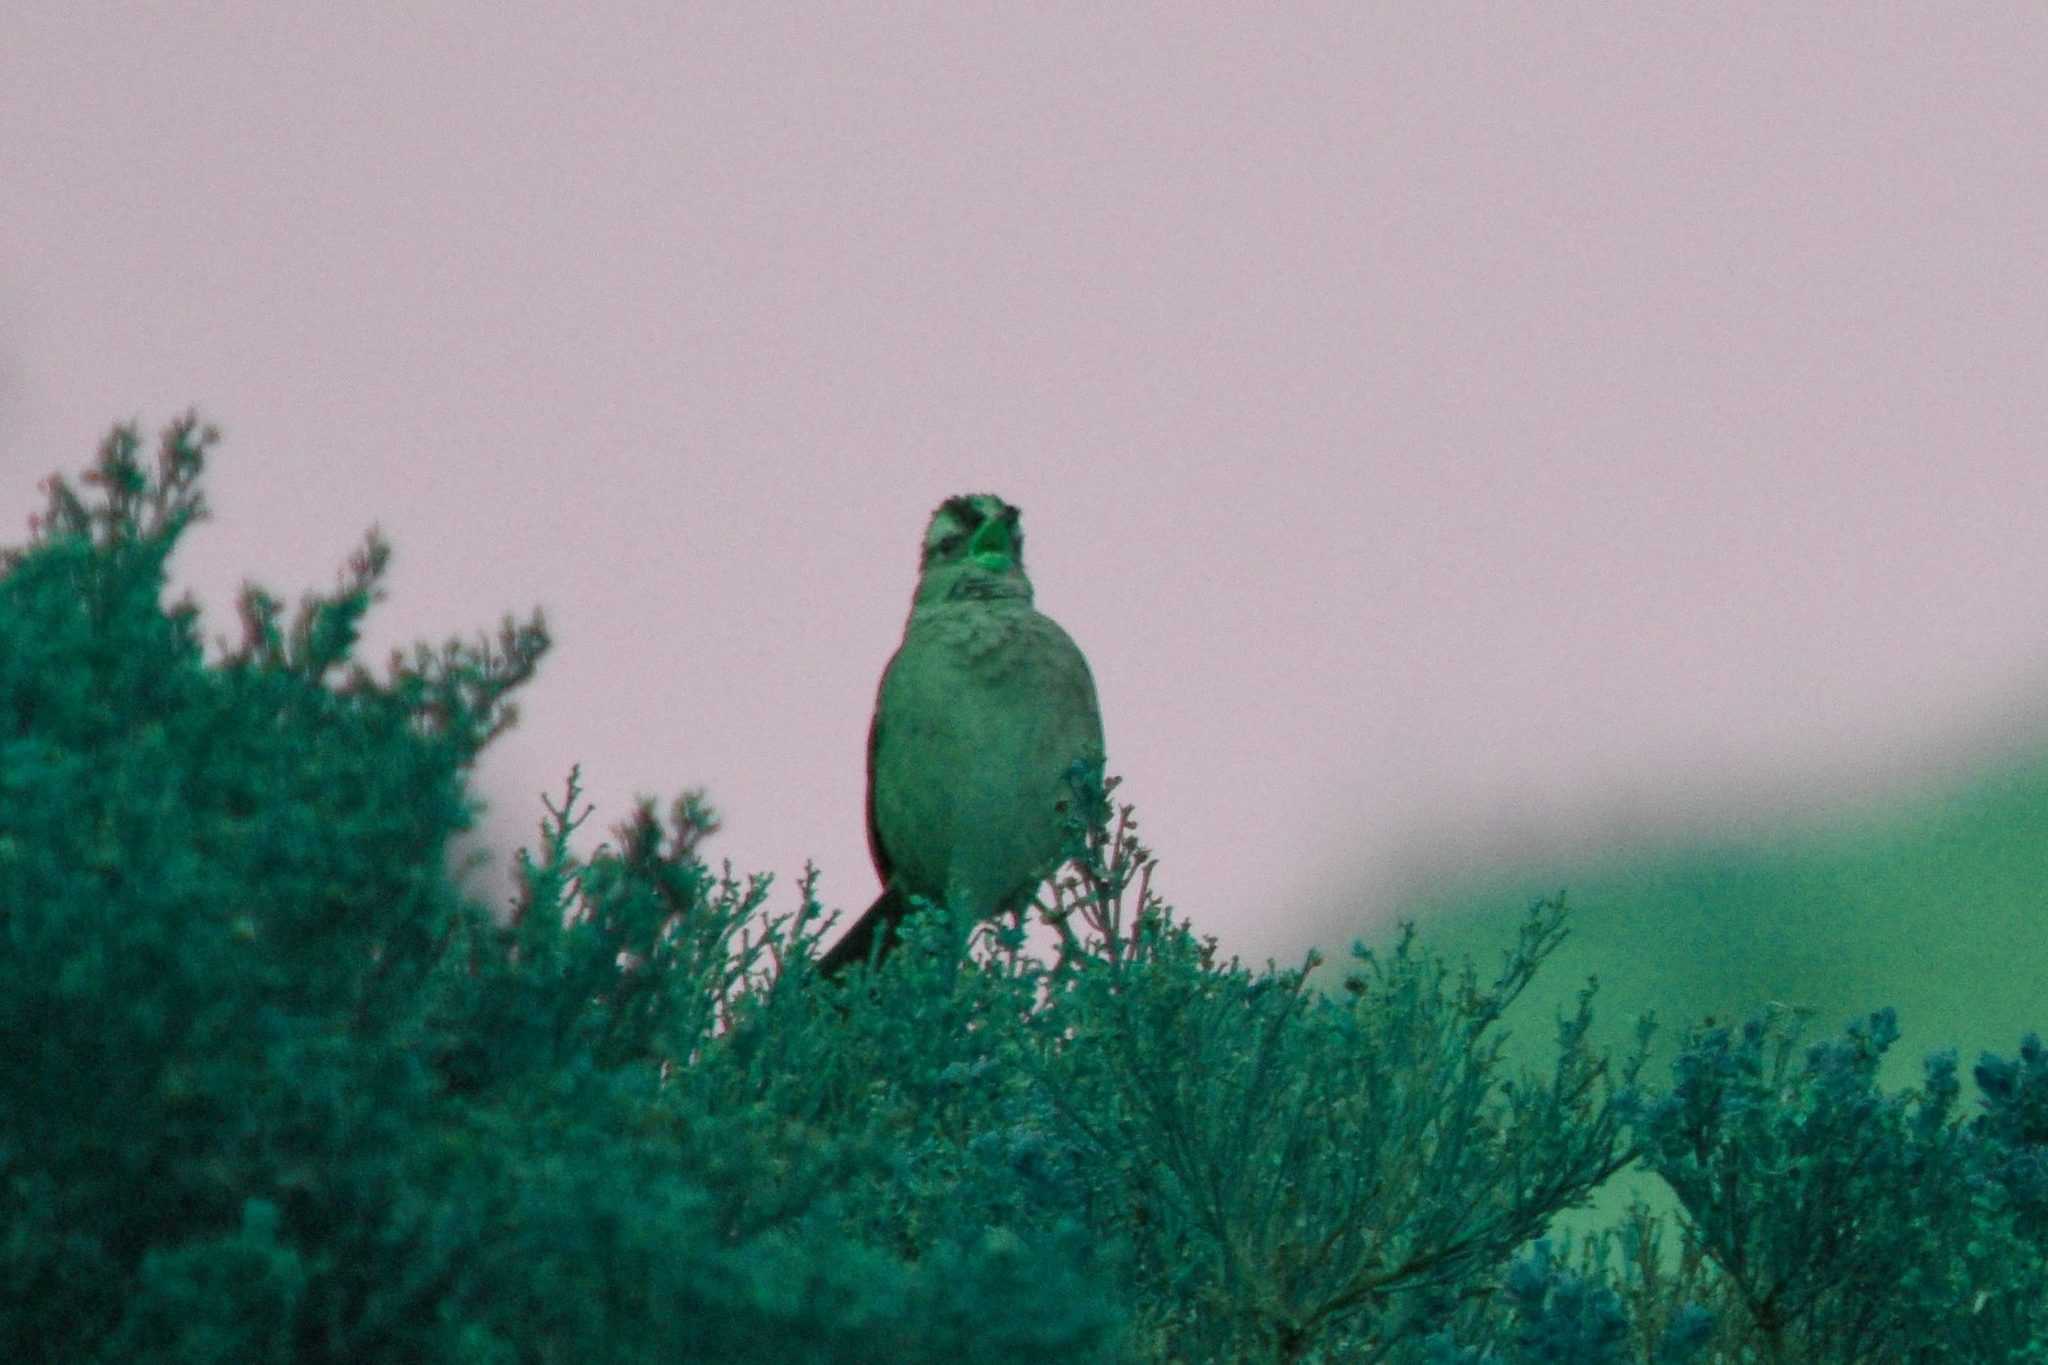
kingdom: Animalia
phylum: Chordata
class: Aves
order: Passeriformes
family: Passerellidae
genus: Zonotrichia
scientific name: Zonotrichia leucophrys
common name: White-crowned sparrow
